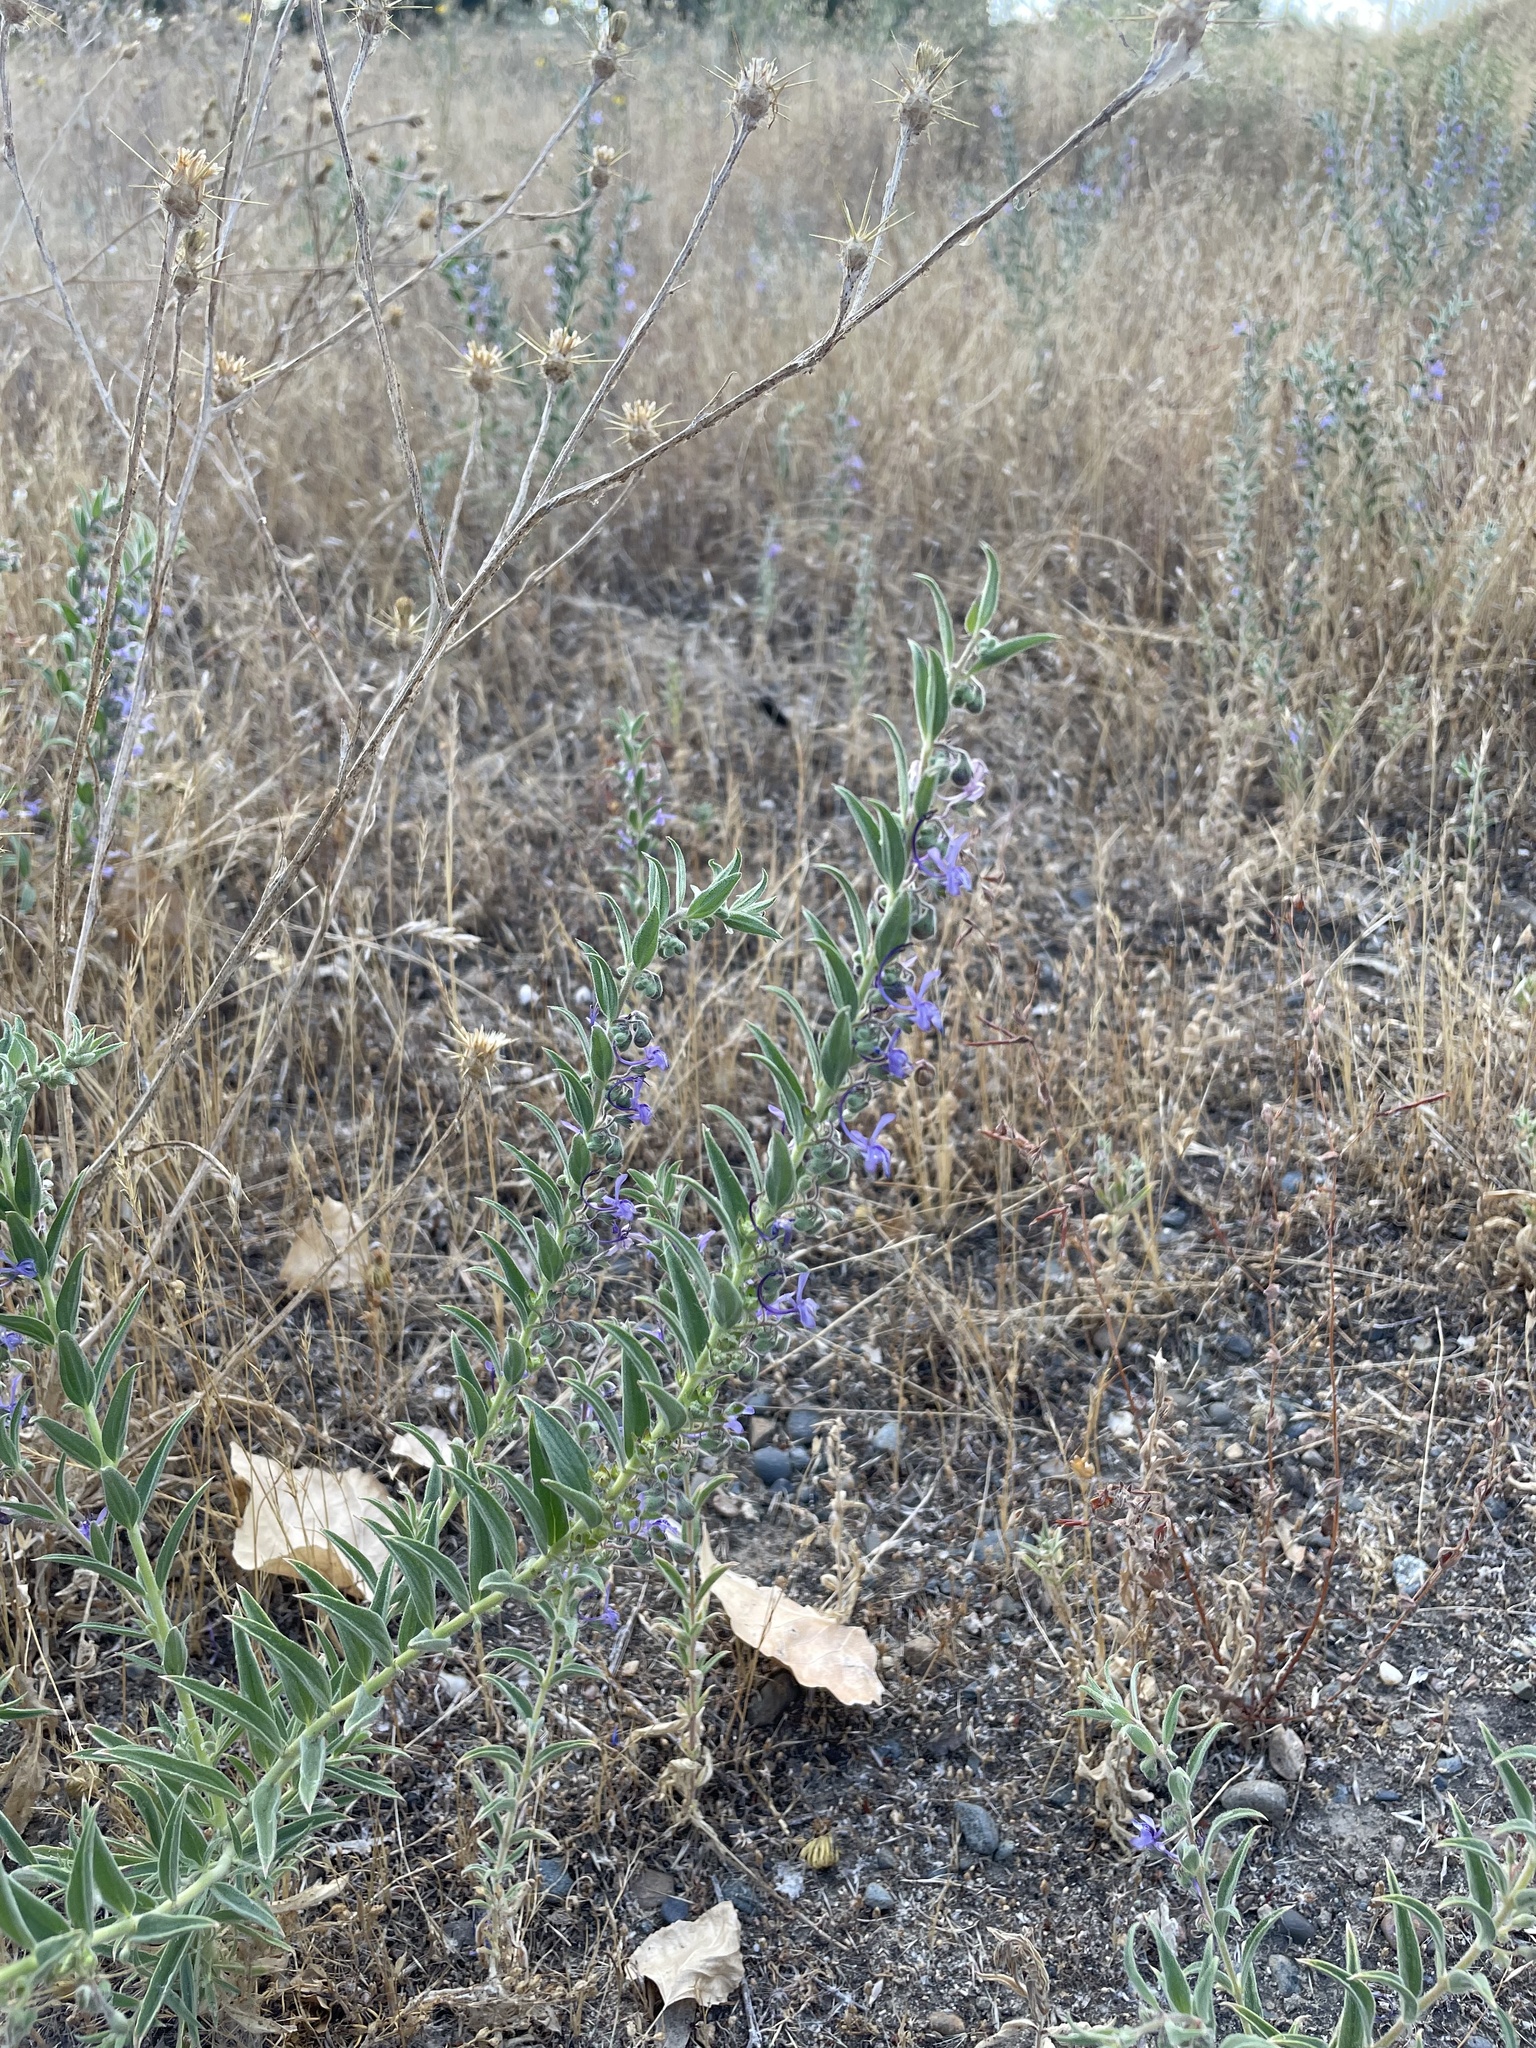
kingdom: Plantae
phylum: Tracheophyta
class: Magnoliopsida
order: Lamiales
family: Lamiaceae
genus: Trichostema
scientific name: Trichostema lanceolatum
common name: Vinegar-weed
